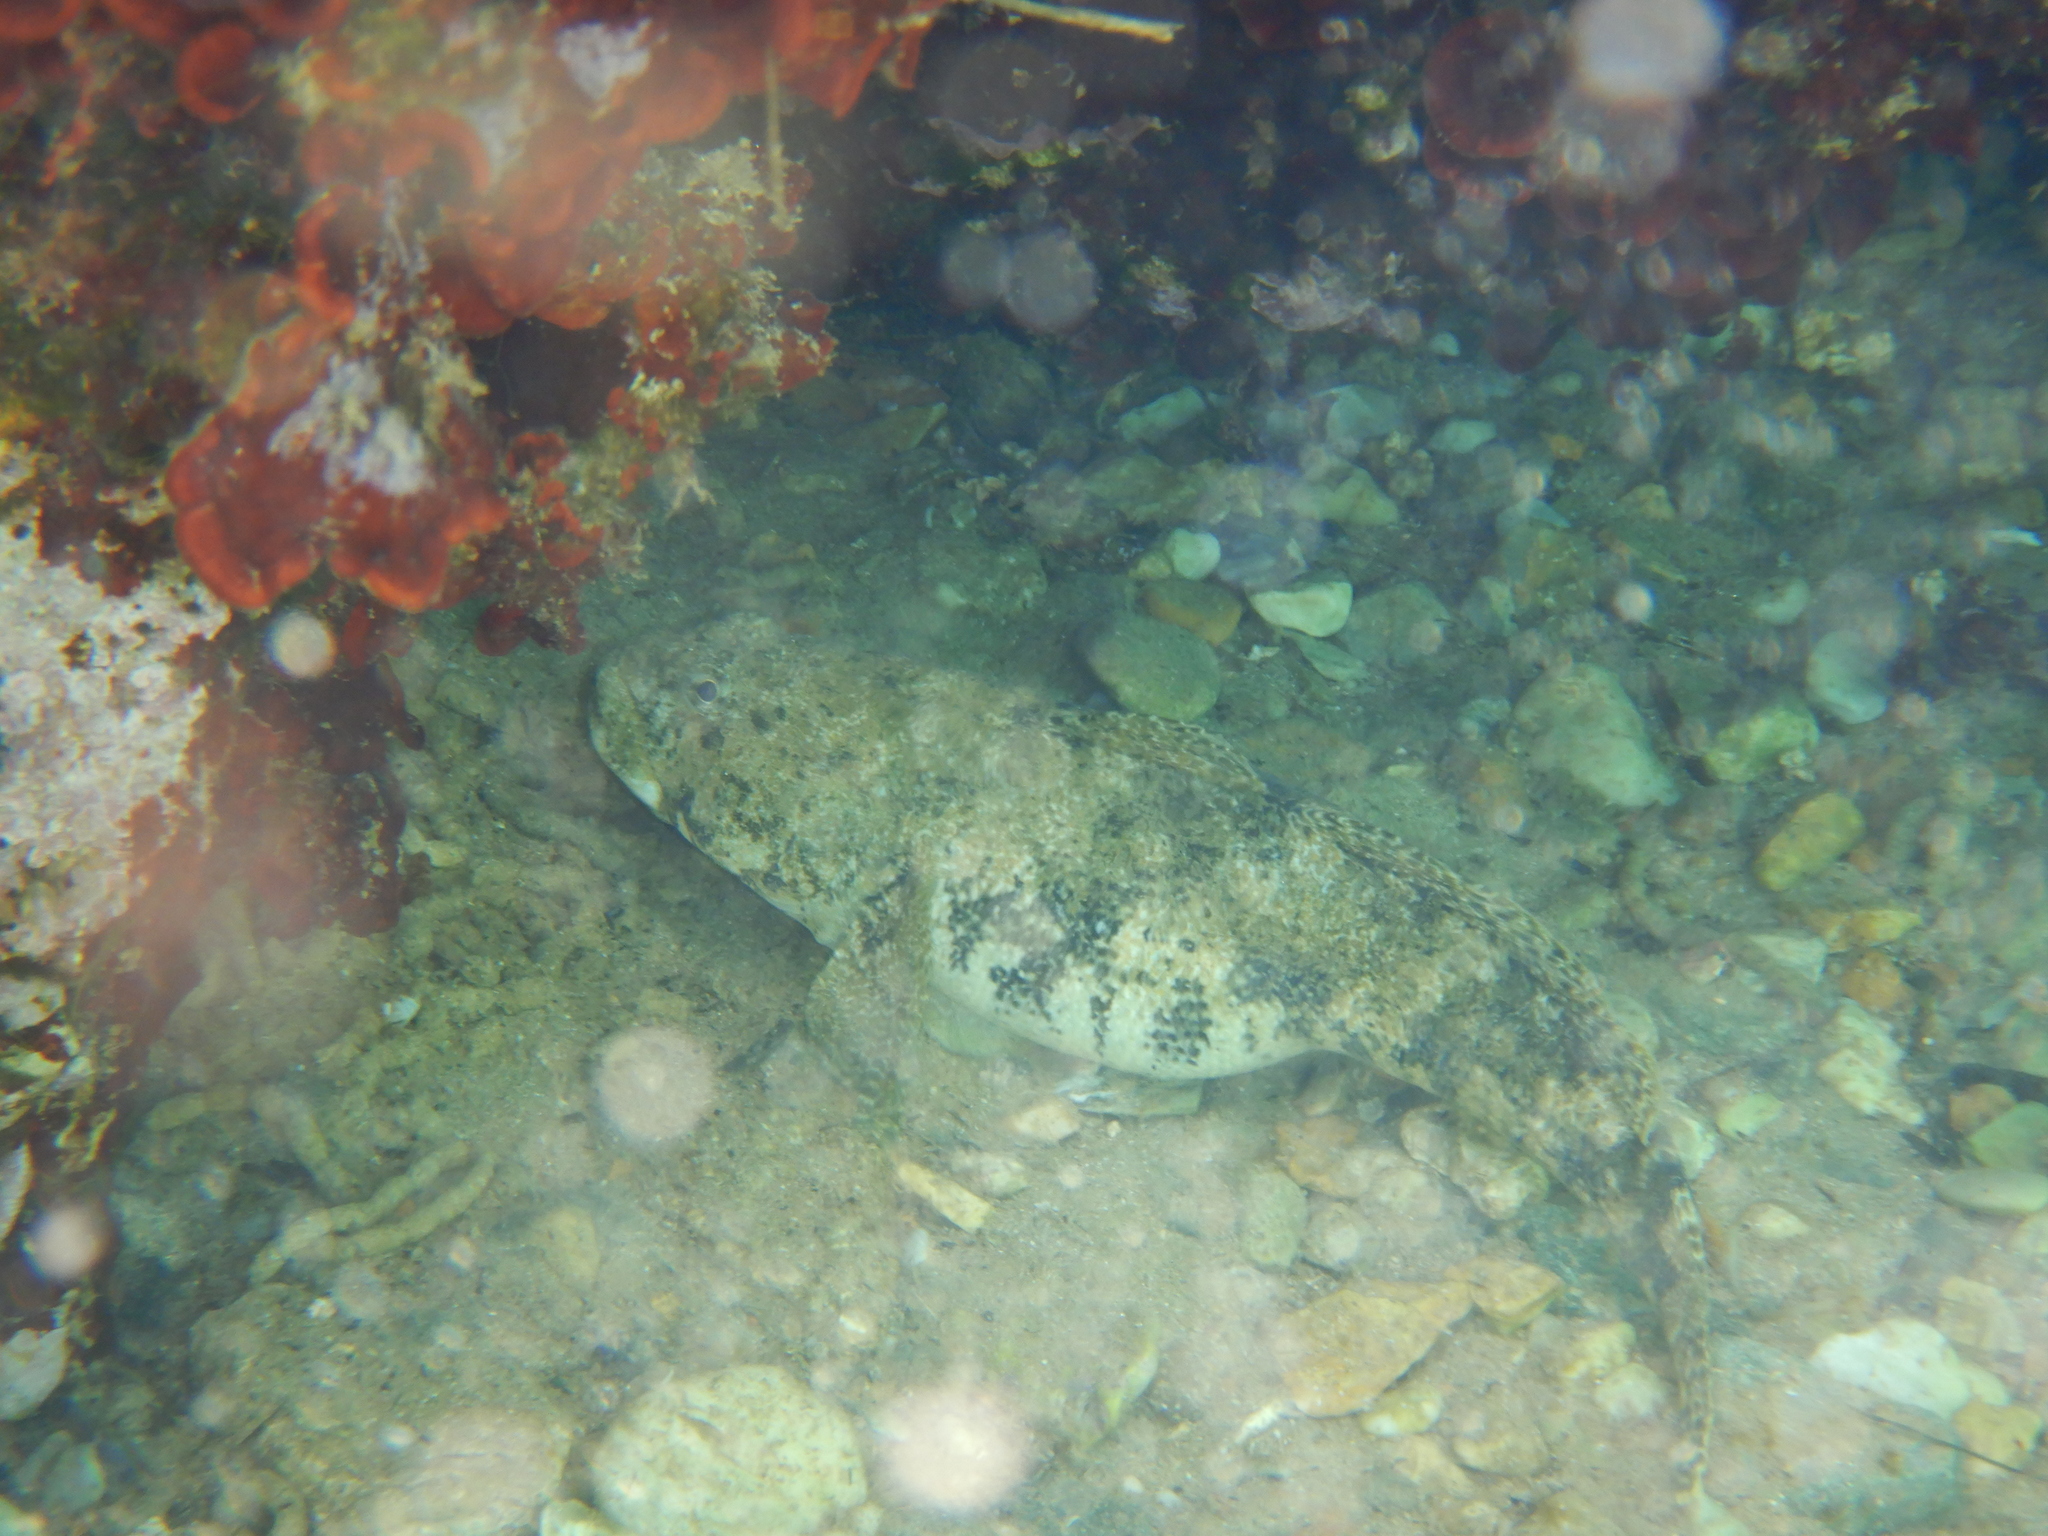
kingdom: Animalia
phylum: Chordata
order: Perciformes
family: Gobiidae
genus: Gobius
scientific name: Gobius cobitis
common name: Giant goby
